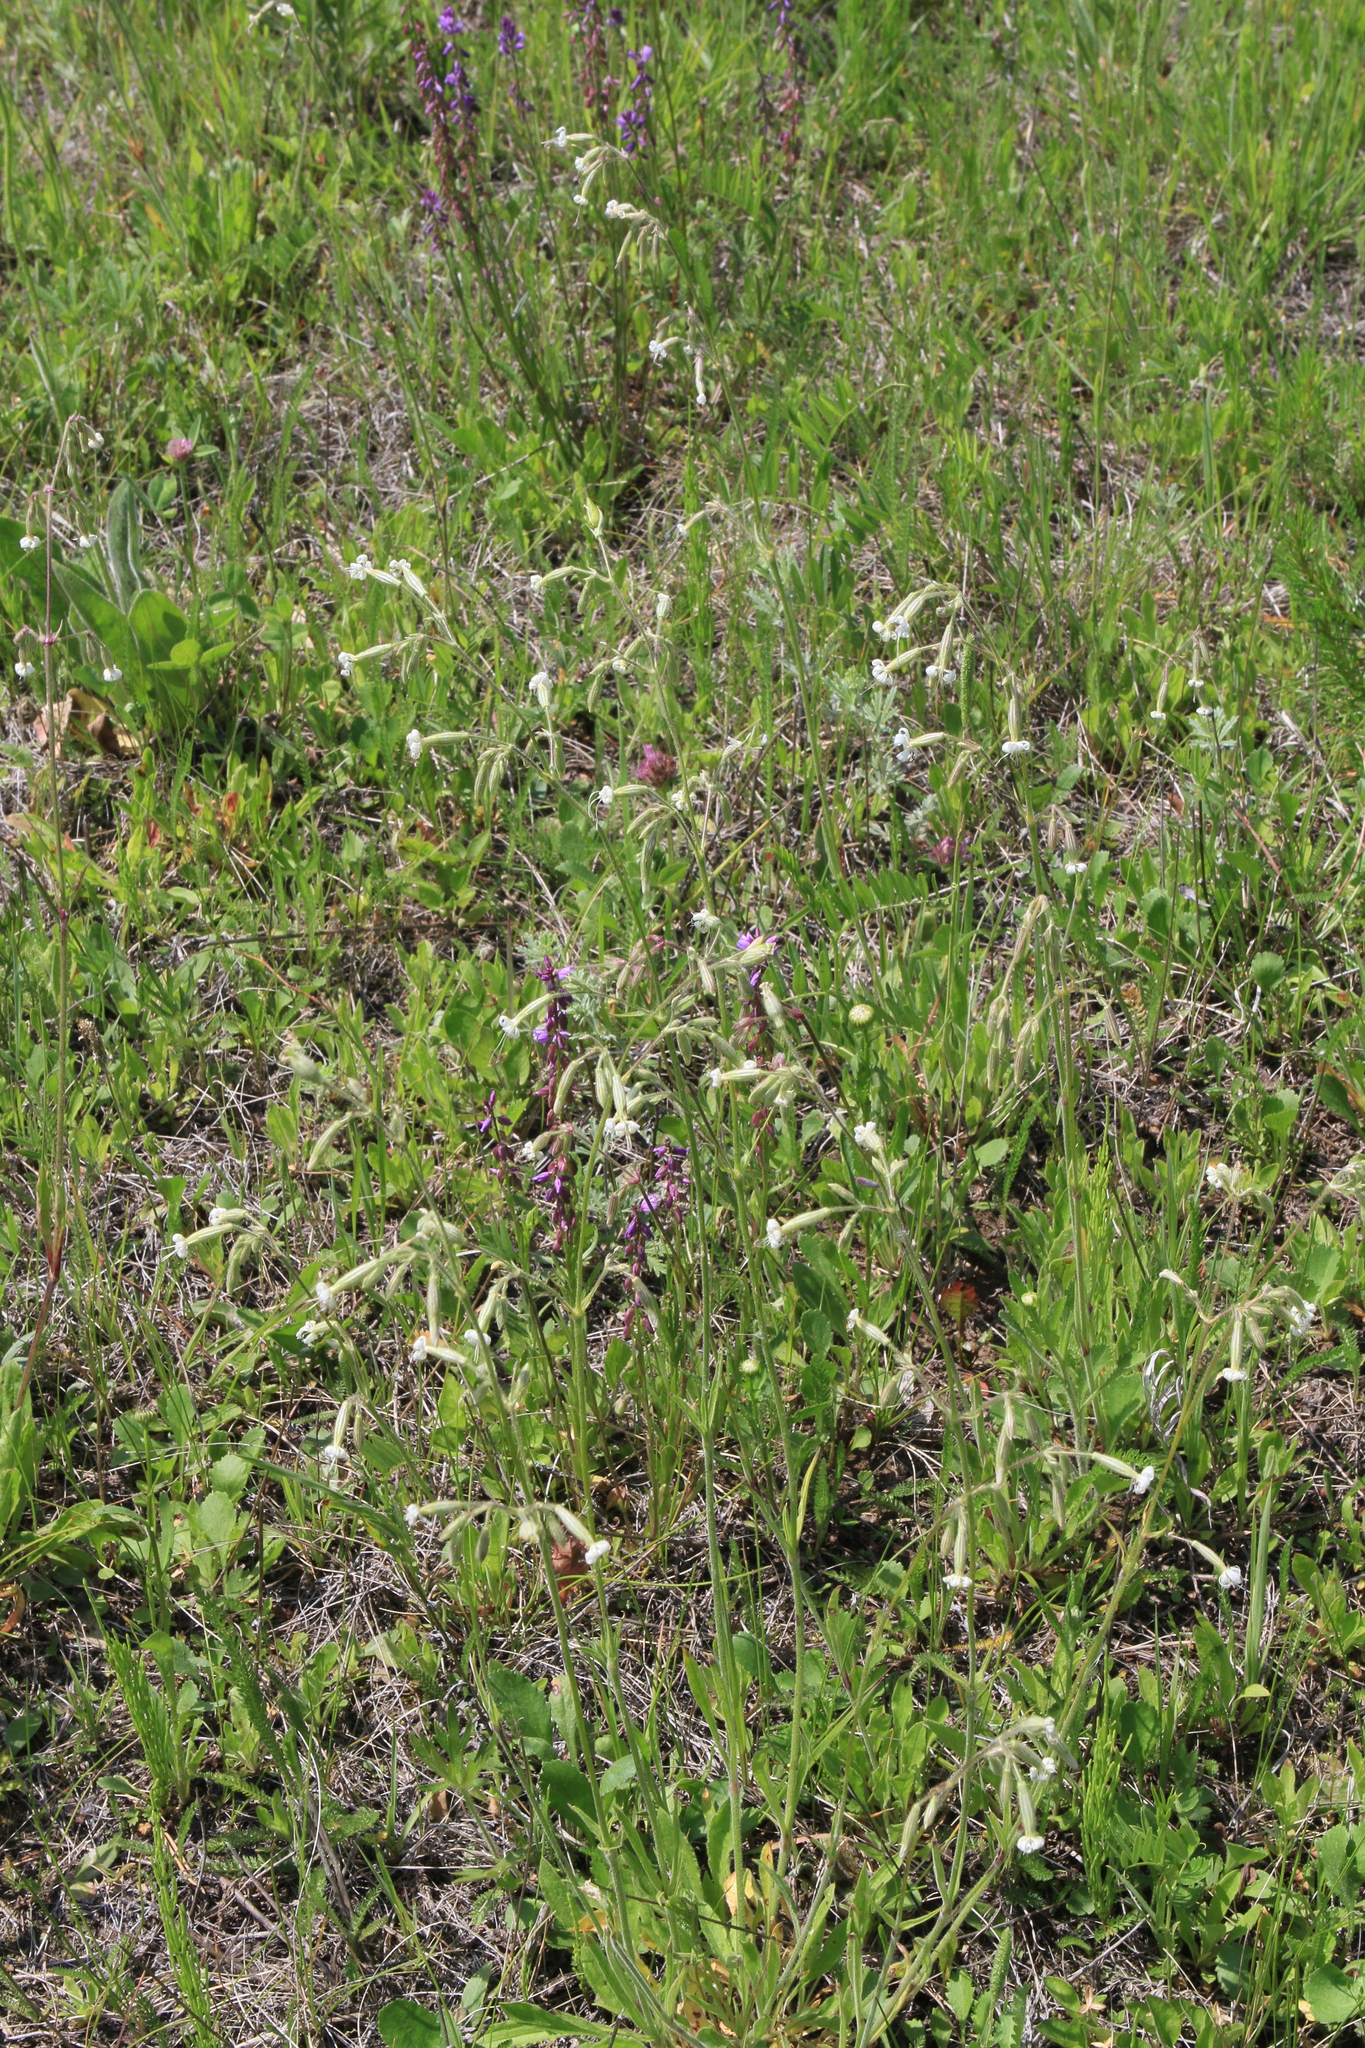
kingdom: Plantae
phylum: Tracheophyta
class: Magnoliopsida
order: Caryophyllales
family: Caryophyllaceae
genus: Silene
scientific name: Silene nutans
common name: Nottingham catchfly
